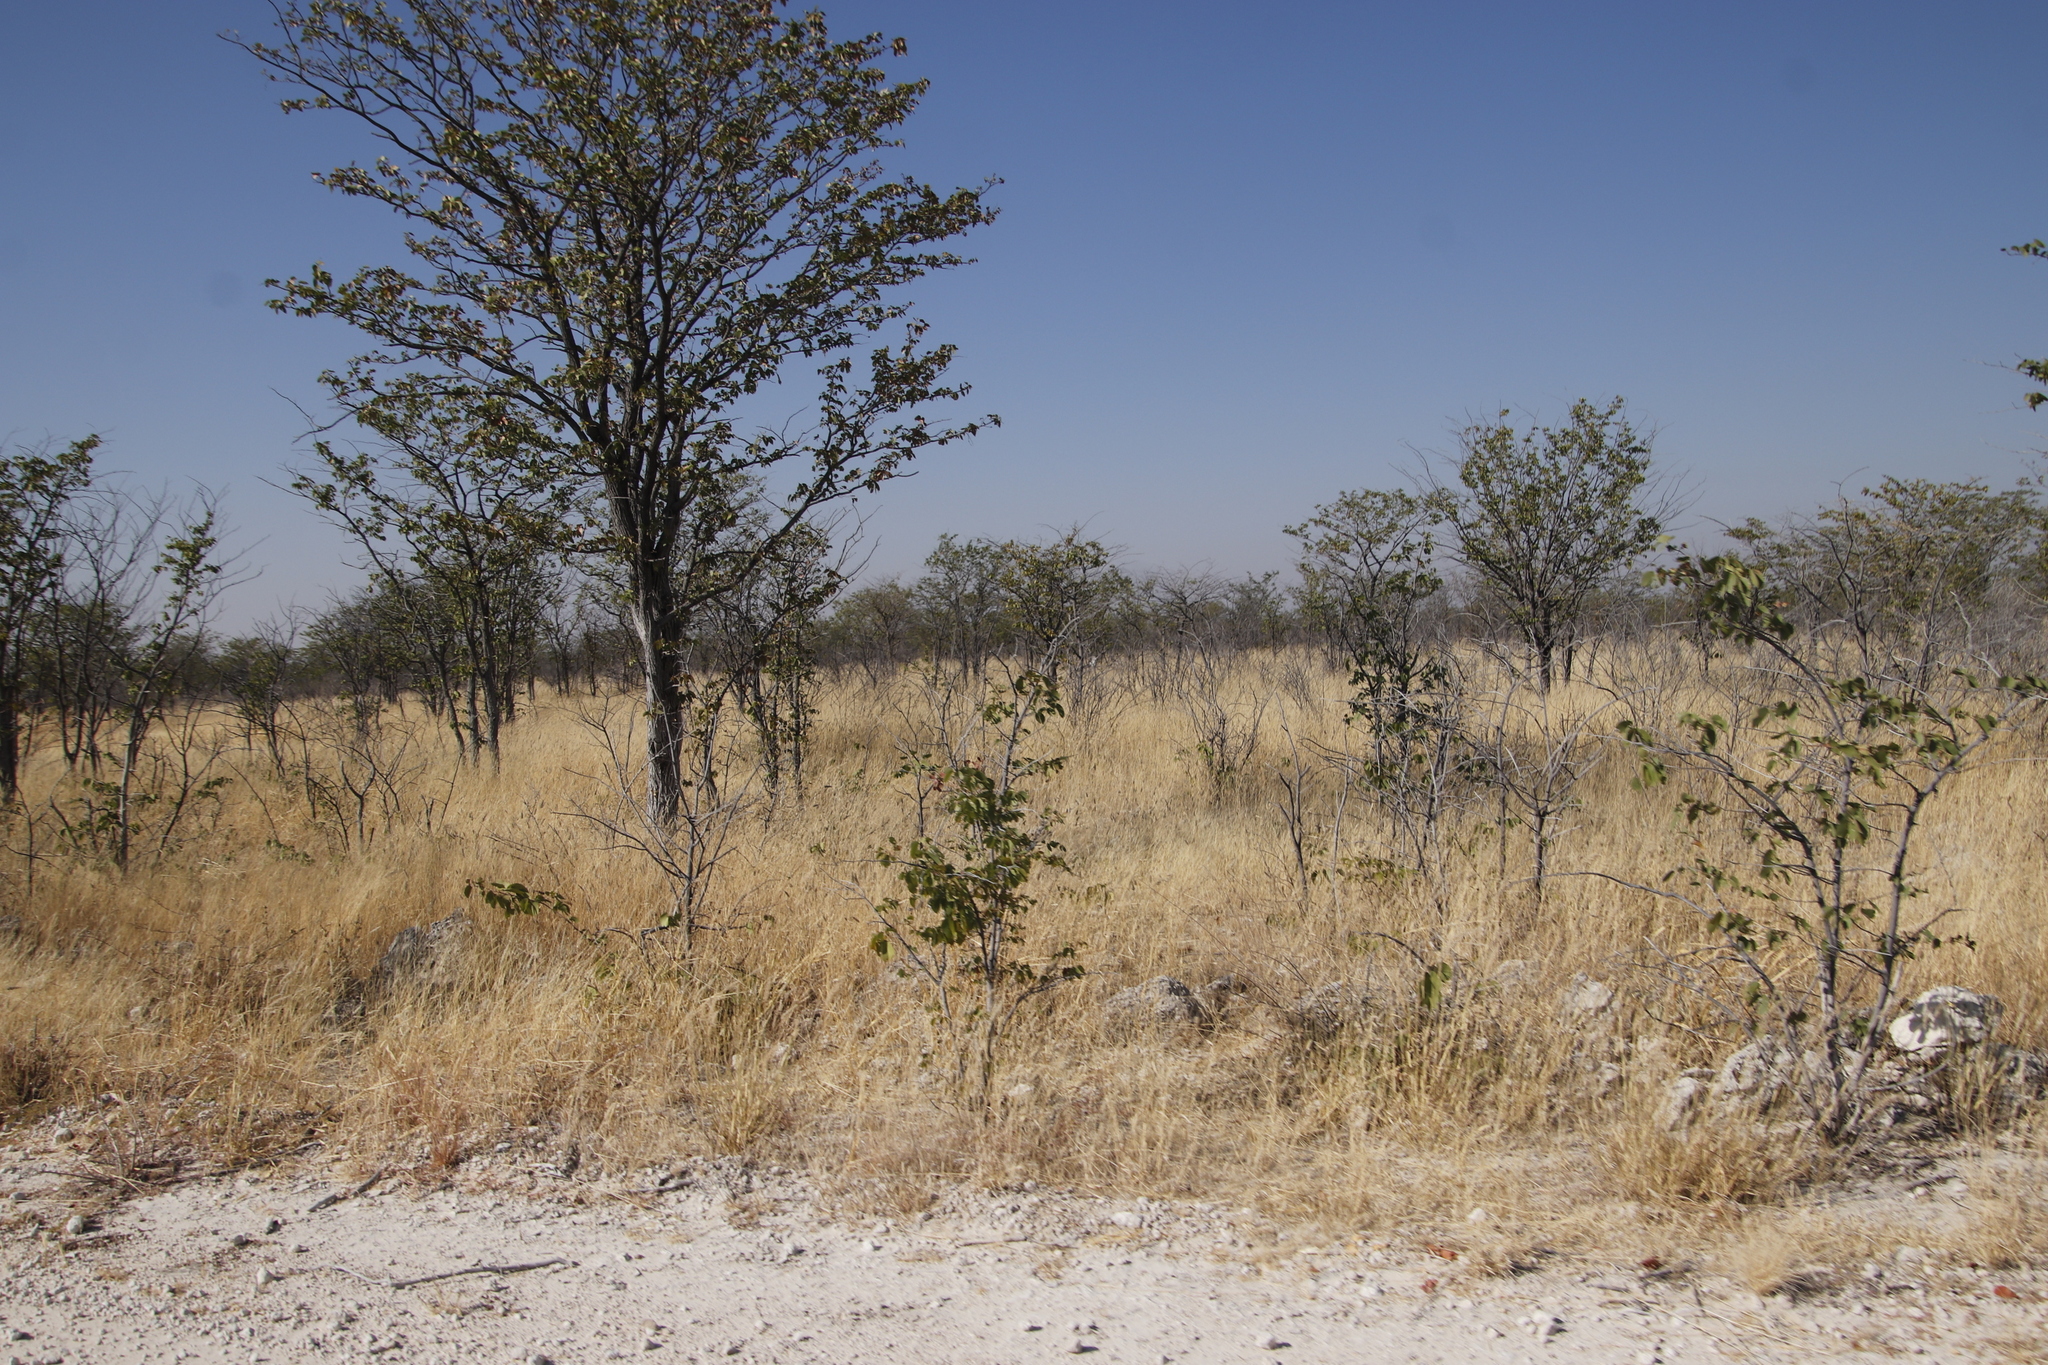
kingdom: Plantae
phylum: Tracheophyta
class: Magnoliopsida
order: Fabales
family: Fabaceae
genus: Colophospermum
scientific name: Colophospermum mopane
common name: Mopane
